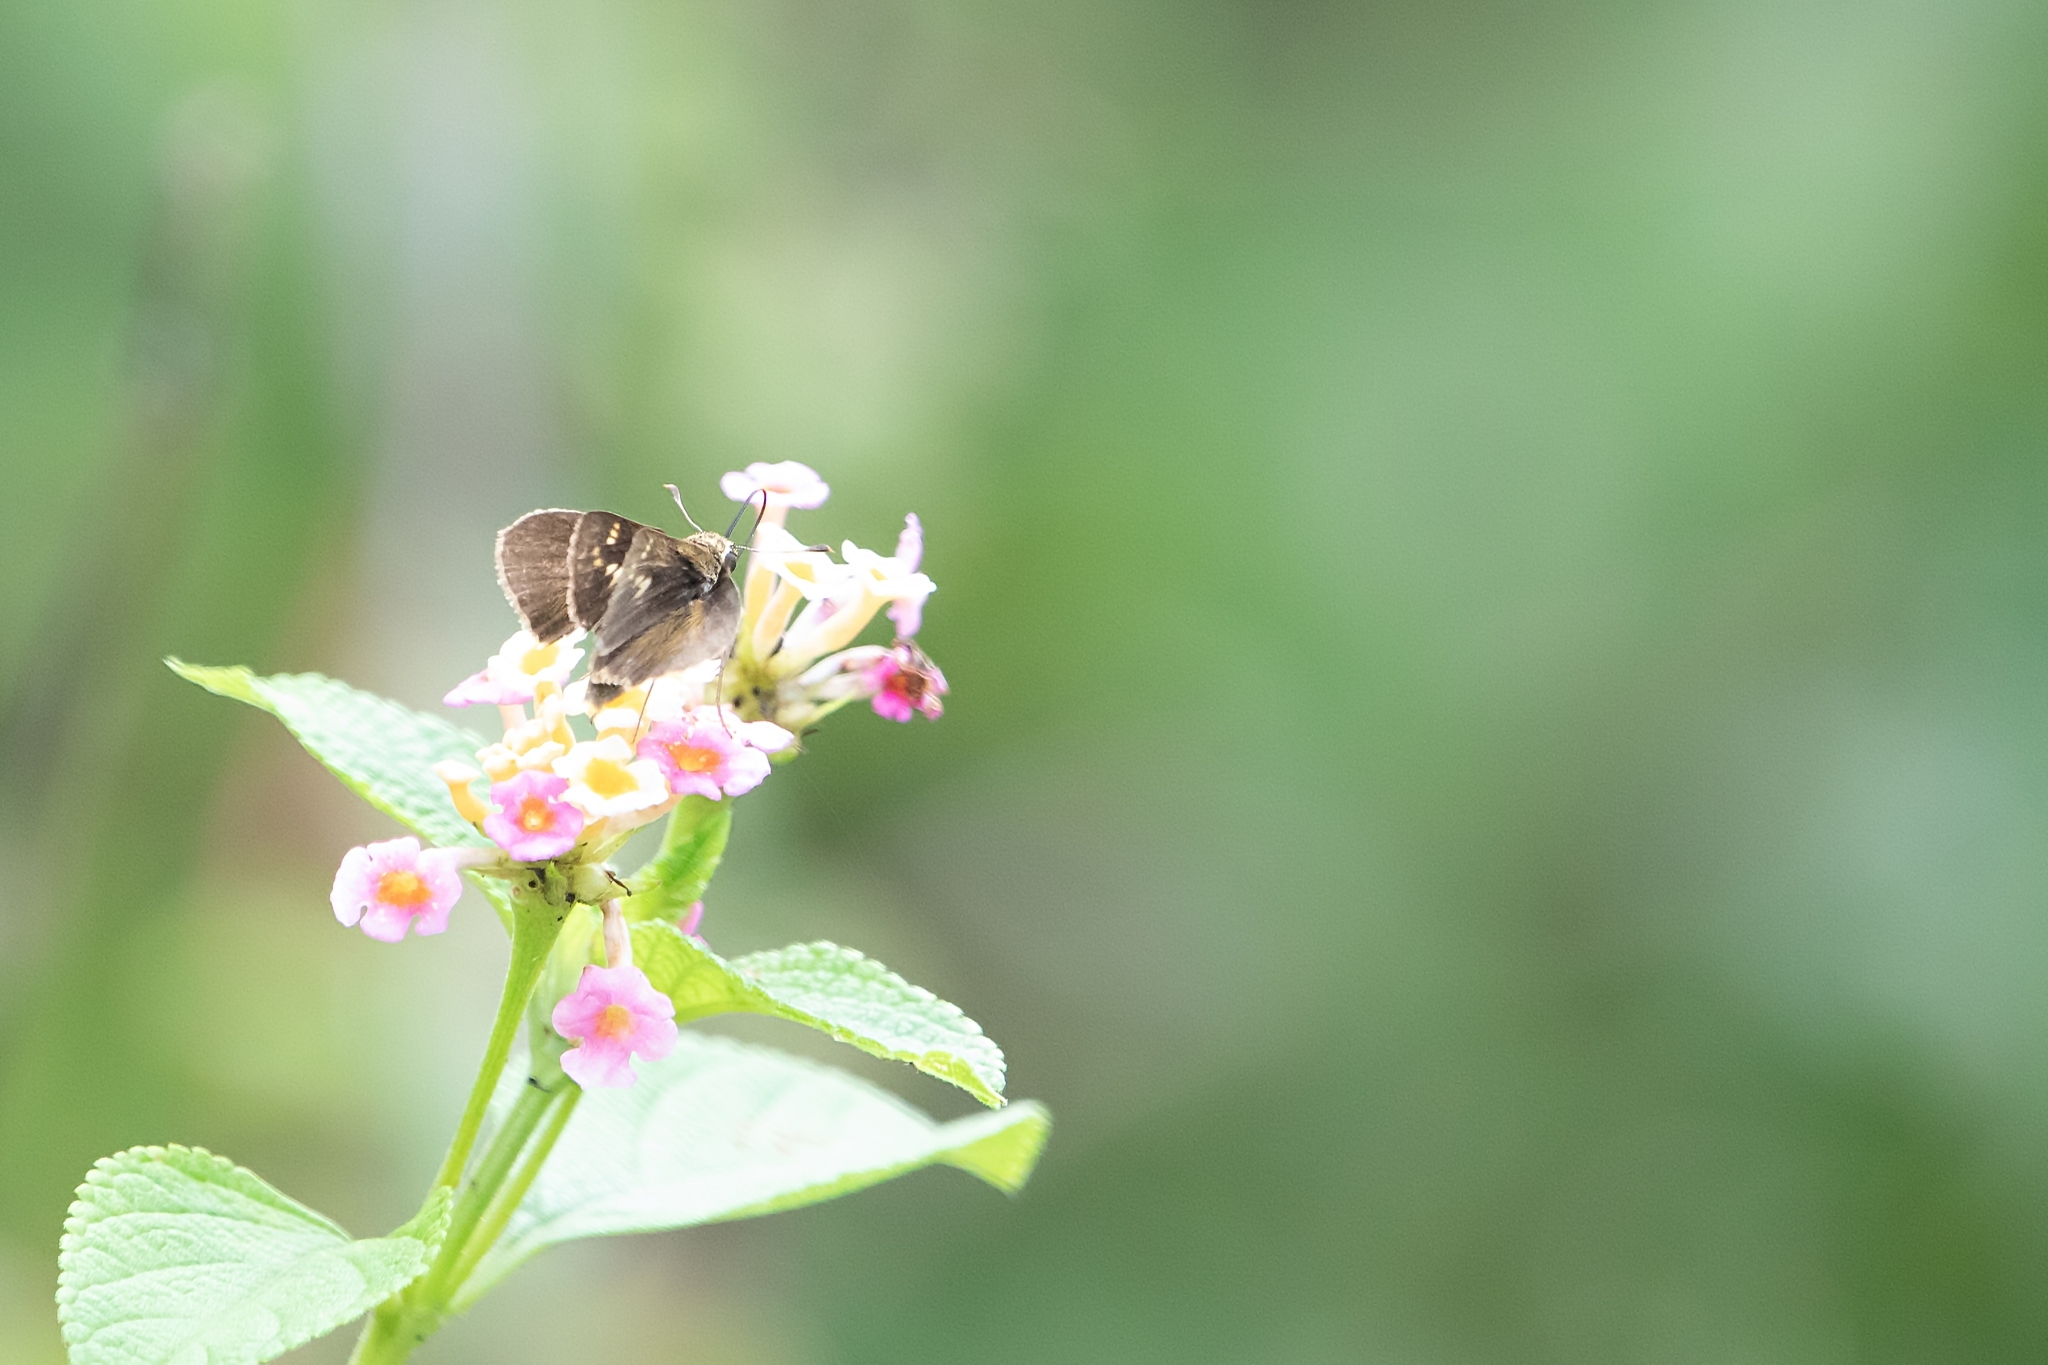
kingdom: Animalia
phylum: Arthropoda
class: Insecta
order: Lepidoptera
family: Hesperiidae
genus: Polites
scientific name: Polites vibex
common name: Whirlabout
